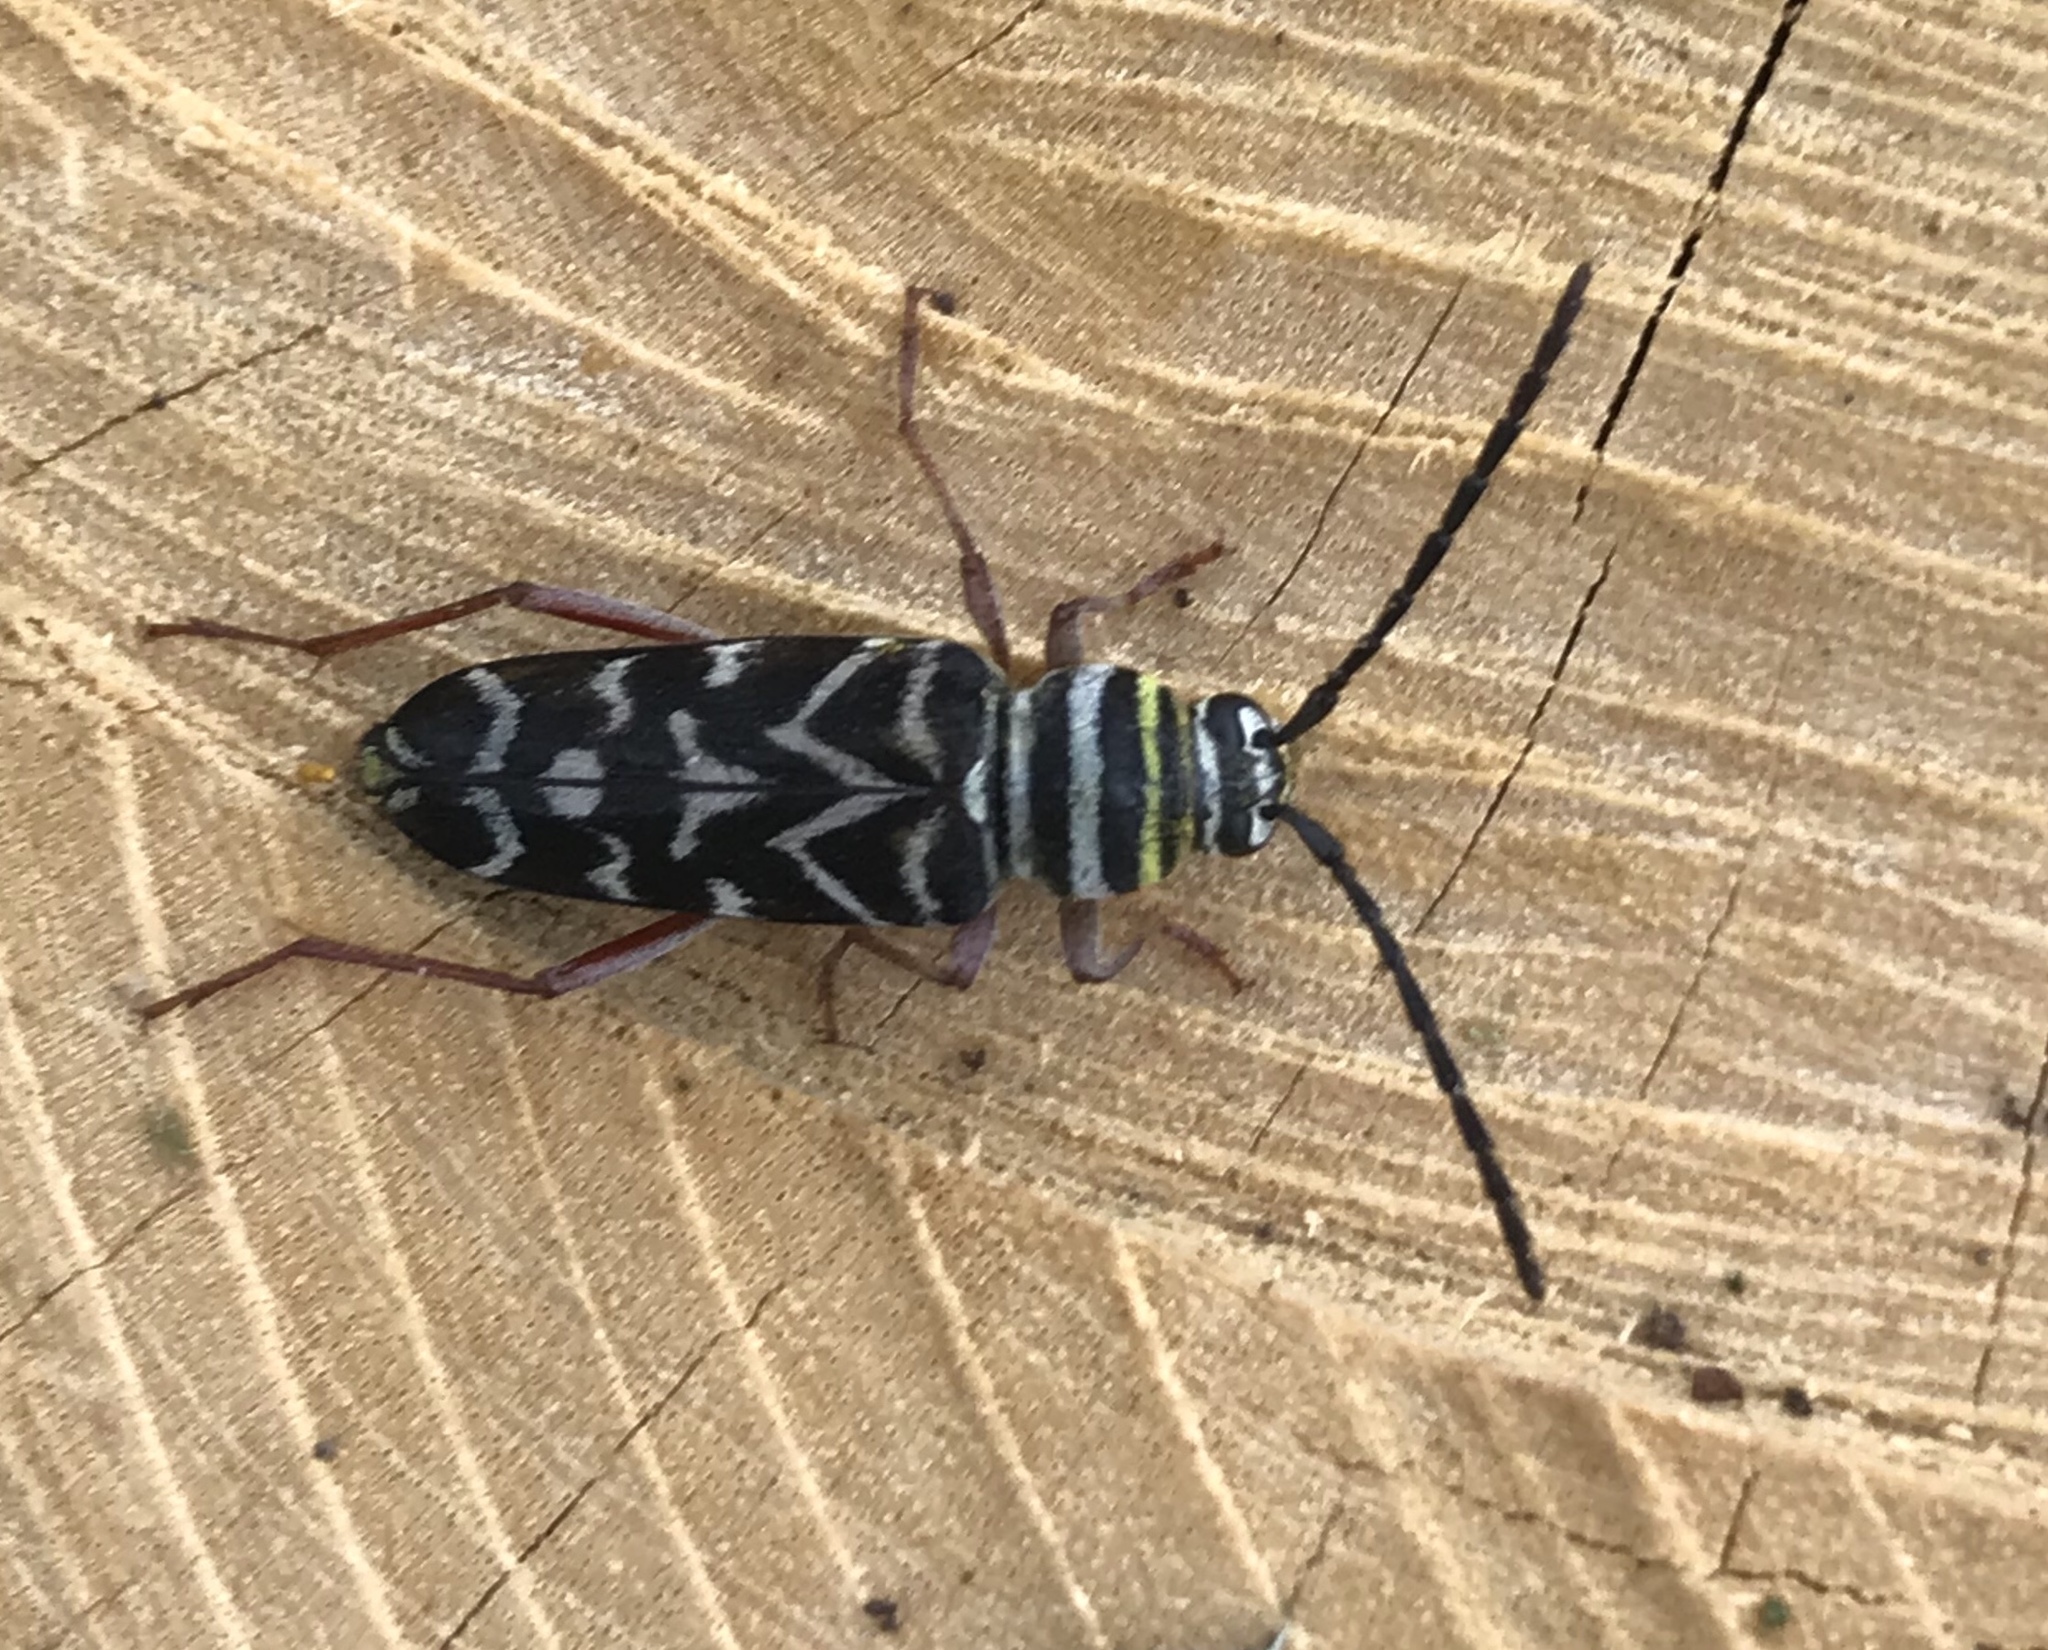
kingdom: Animalia
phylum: Arthropoda
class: Insecta
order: Coleoptera
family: Cerambycidae
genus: Megacyllene
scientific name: Megacyllene caryae
